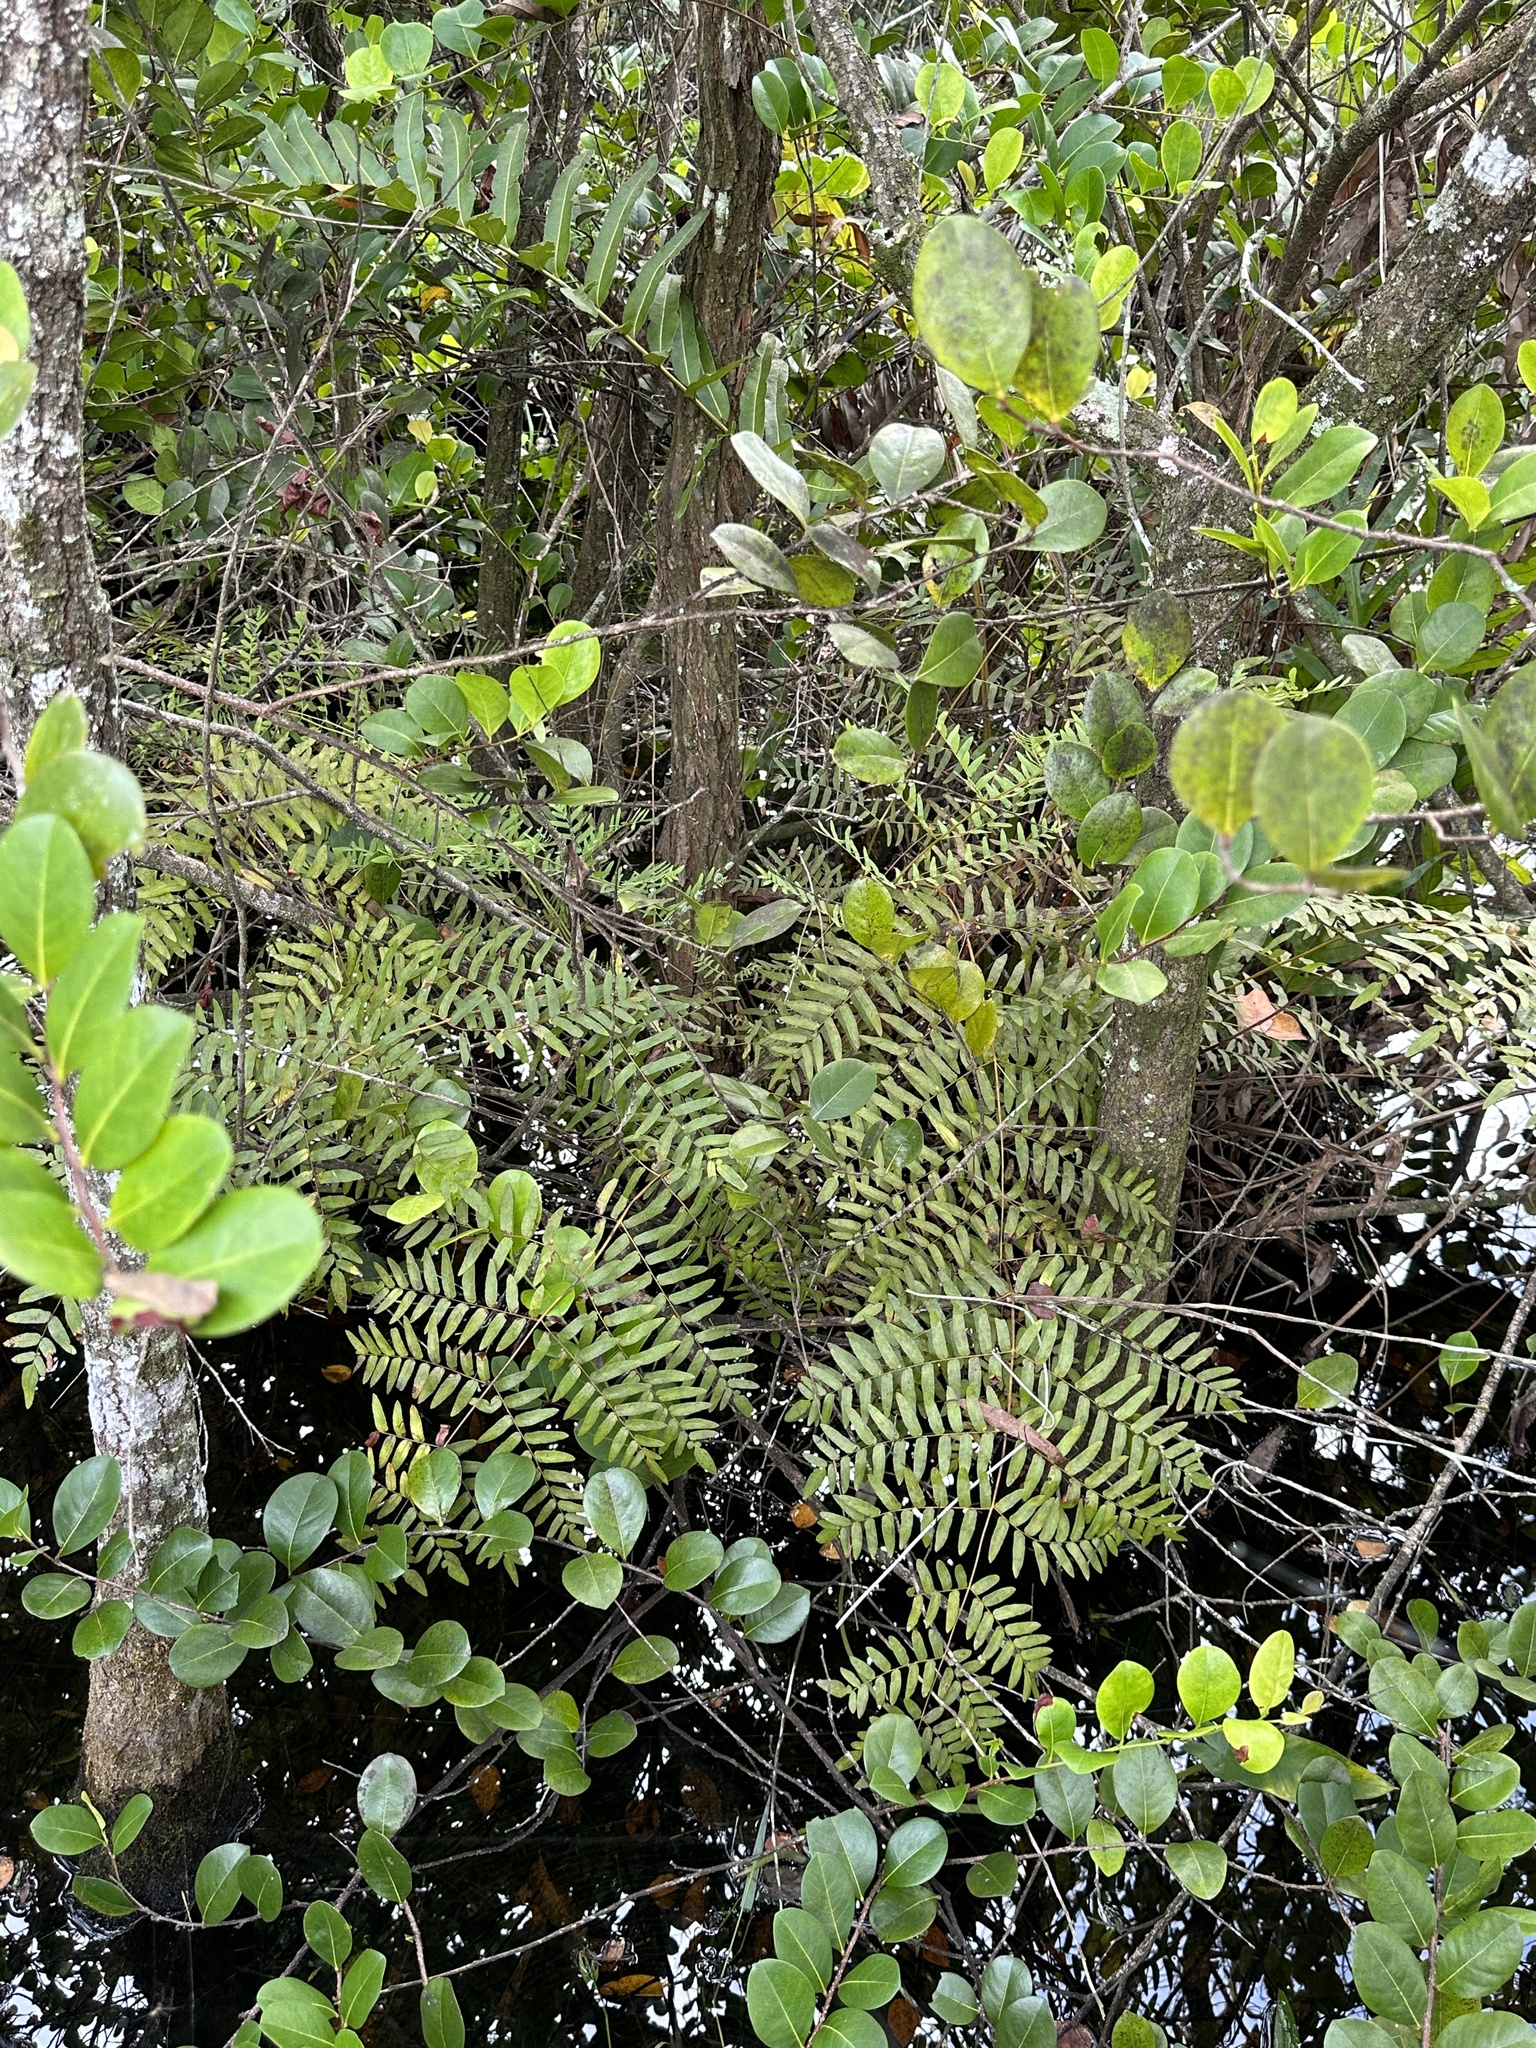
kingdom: Plantae
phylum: Tracheophyta
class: Polypodiopsida
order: Osmundales
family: Osmundaceae
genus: Osmunda
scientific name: Osmunda spectabilis
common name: American royal fern
